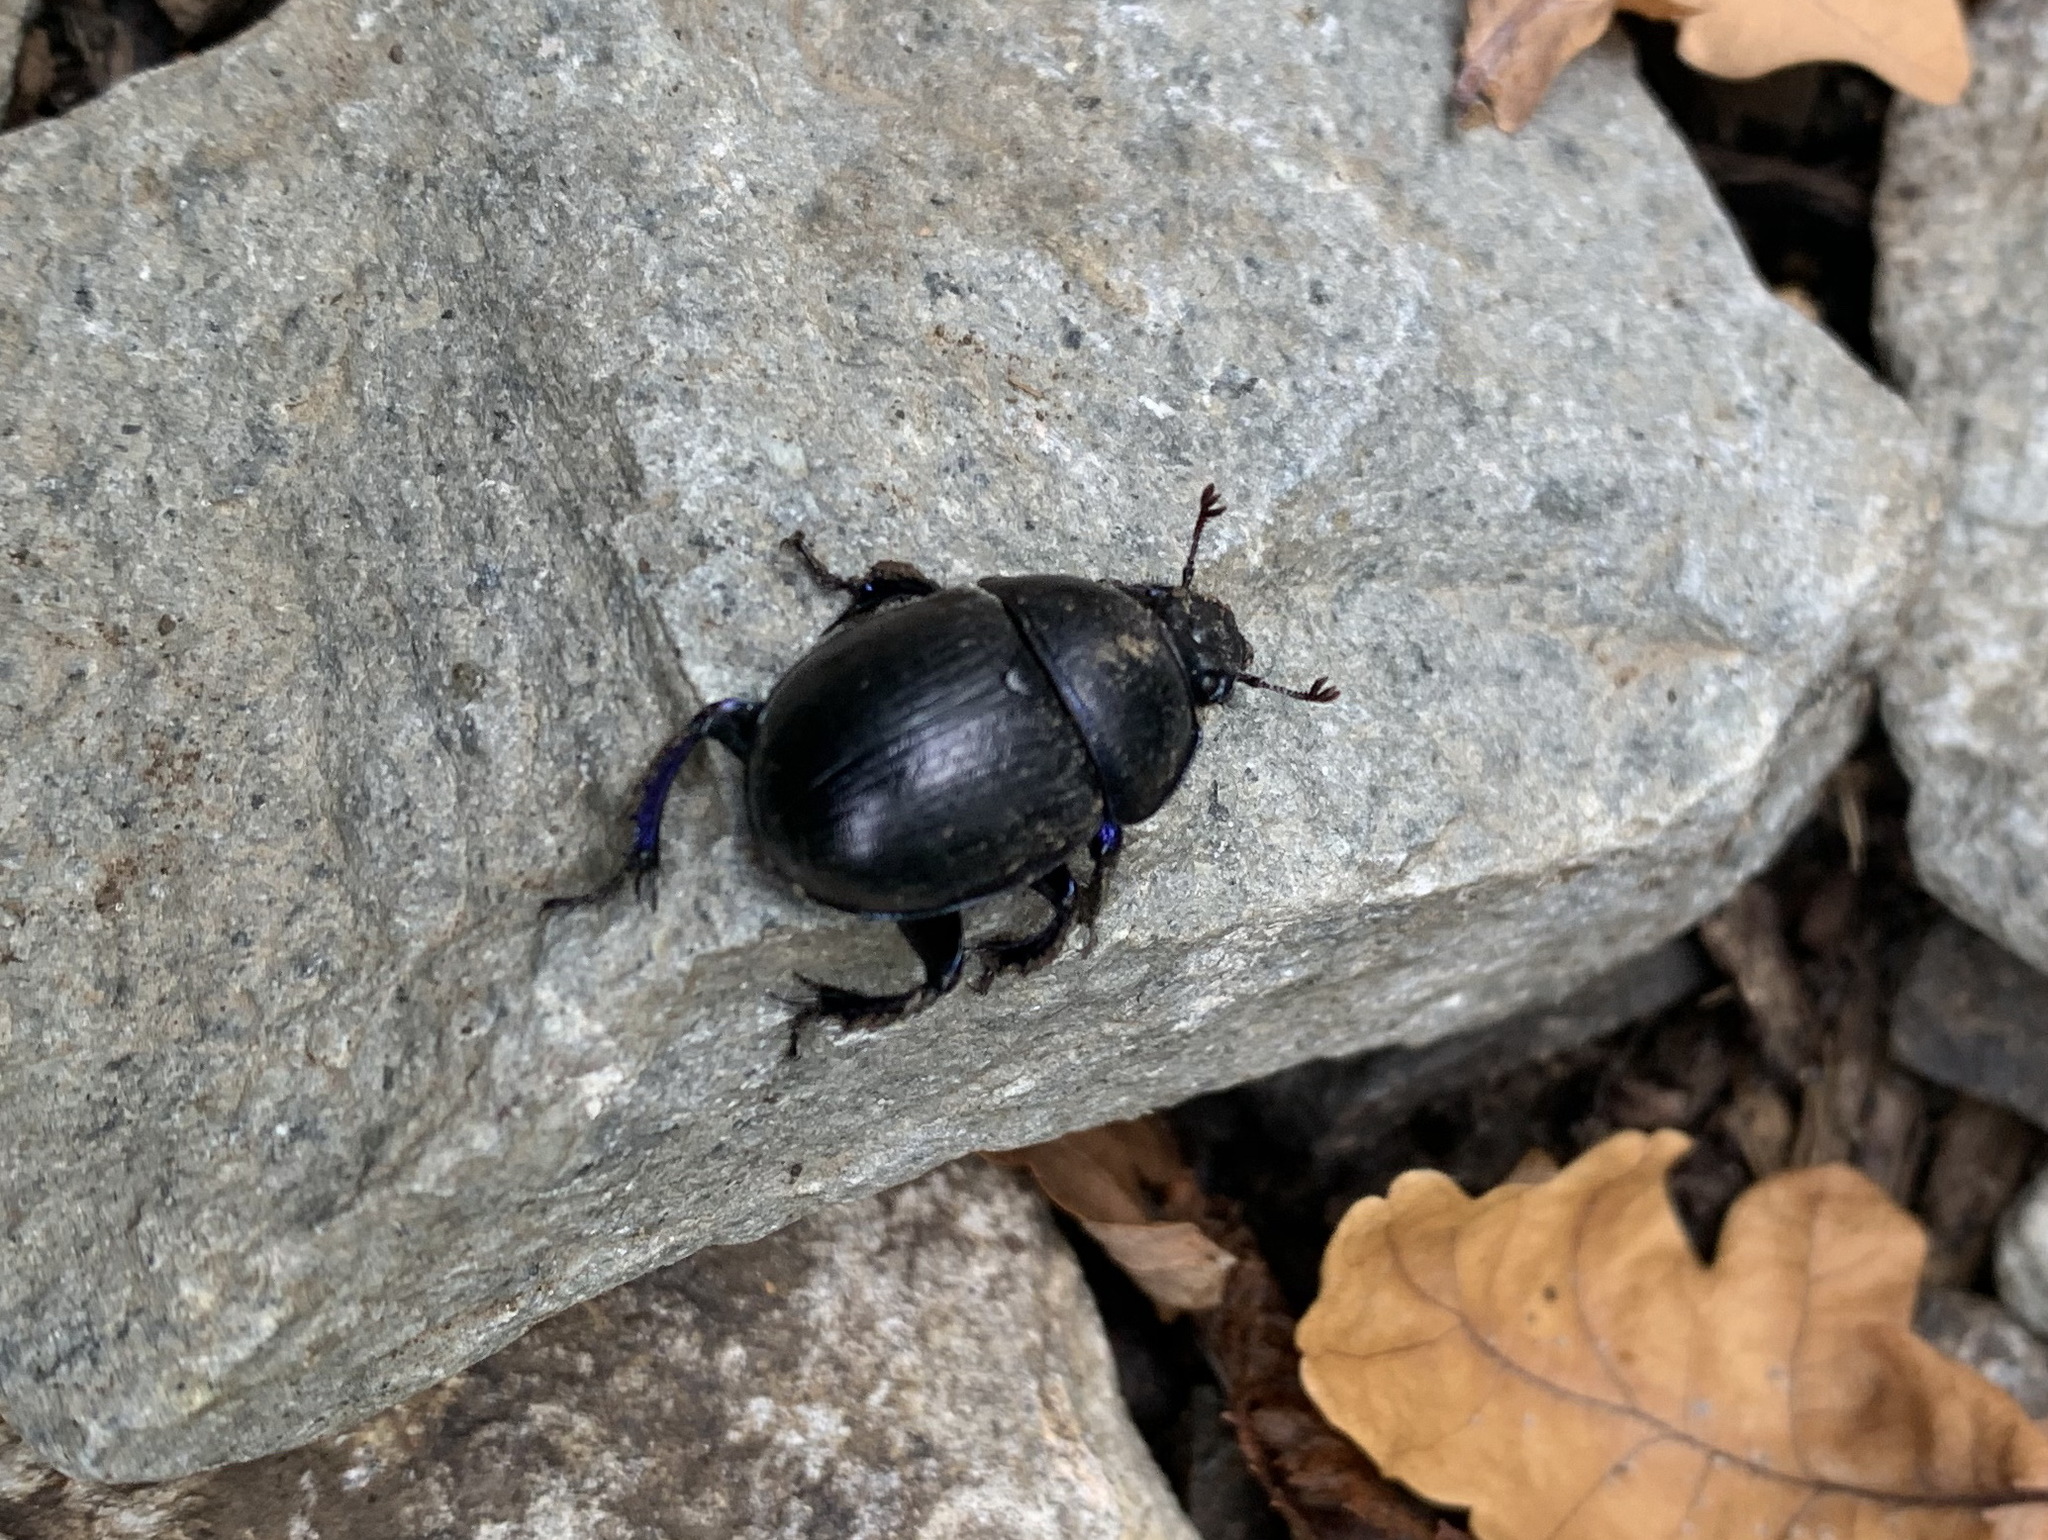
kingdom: Animalia
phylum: Arthropoda
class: Insecta
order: Coleoptera
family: Geotrupidae
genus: Anoplotrupes
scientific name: Anoplotrupes stercorosus
